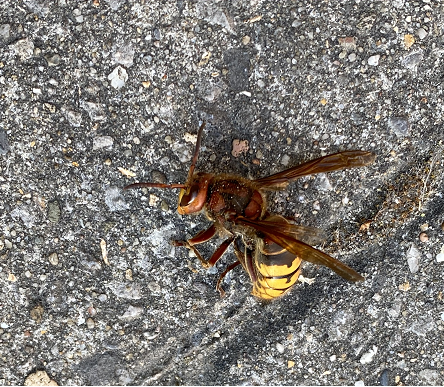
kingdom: Animalia
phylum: Arthropoda
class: Insecta
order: Hymenoptera
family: Vespidae
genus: Vespa
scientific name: Vespa crabro
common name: Hornet
